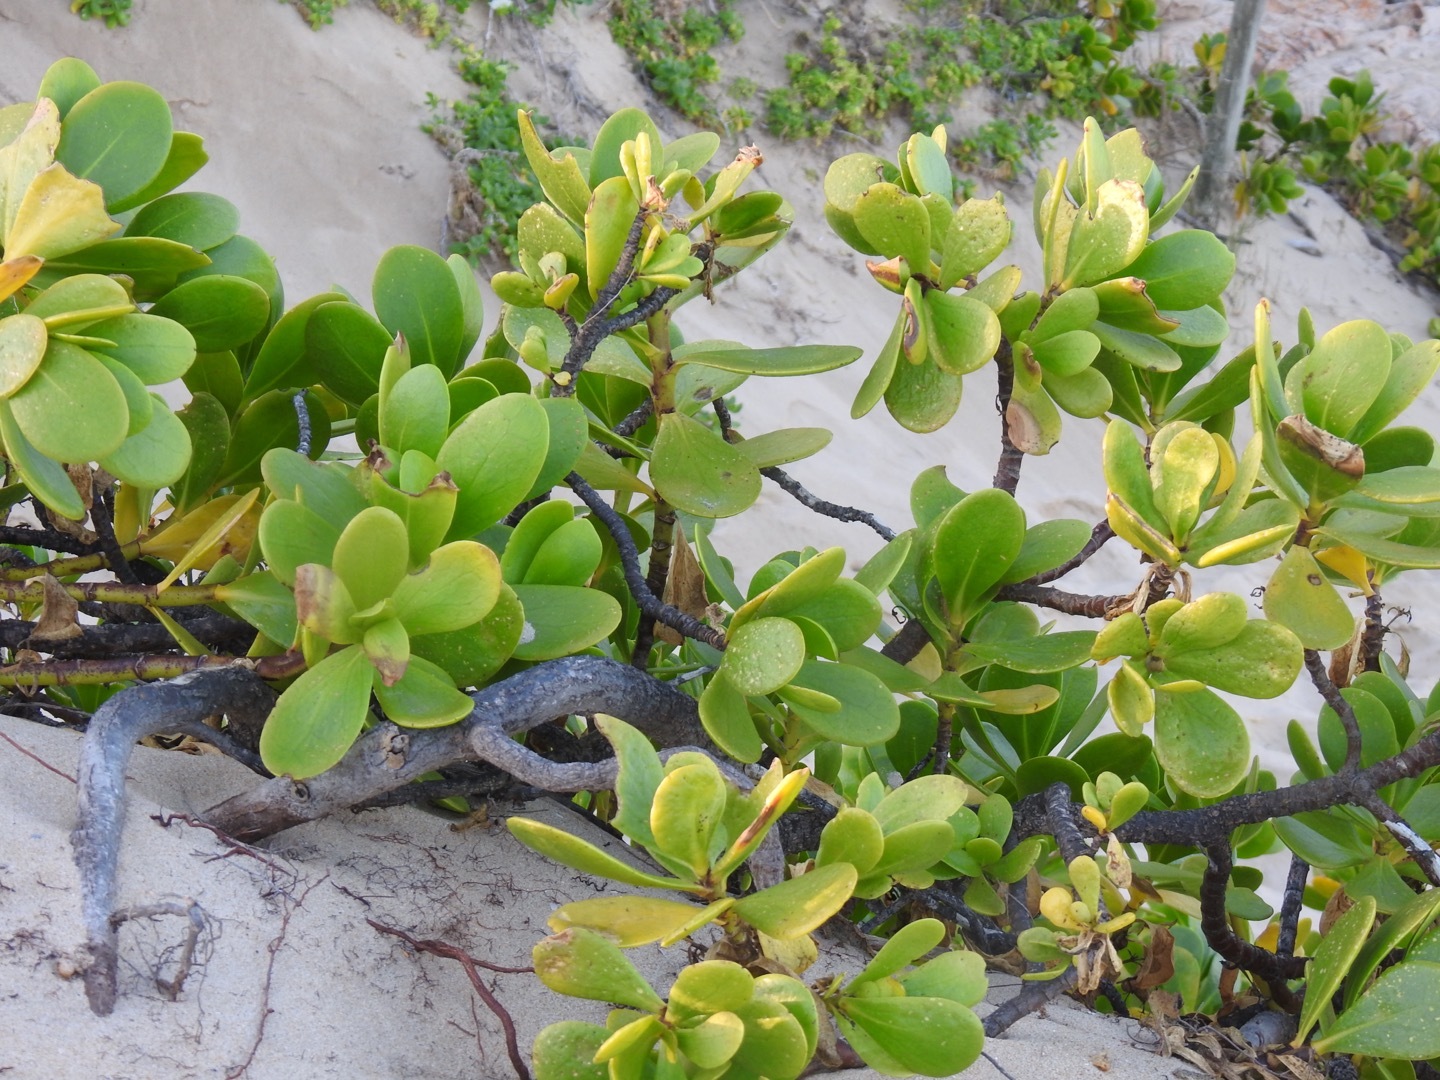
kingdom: Plantae
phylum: Tracheophyta
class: Magnoliopsida
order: Asterales
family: Goodeniaceae
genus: Scaevola
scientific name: Scaevola plumieri
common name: Gull feed
